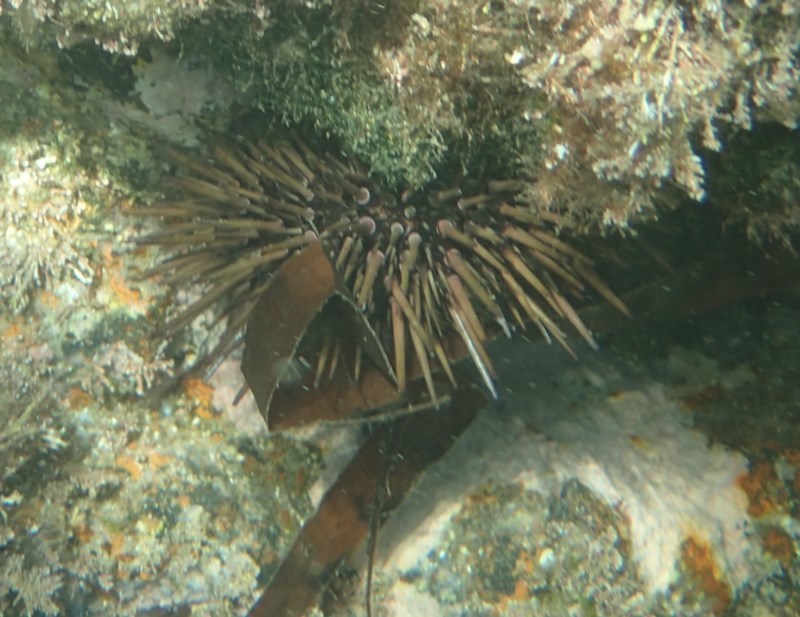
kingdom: Animalia
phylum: Echinodermata
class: Echinoidea
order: Camarodonta
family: Echinometridae
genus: Heliocidaris
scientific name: Heliocidaris erythrogramma
